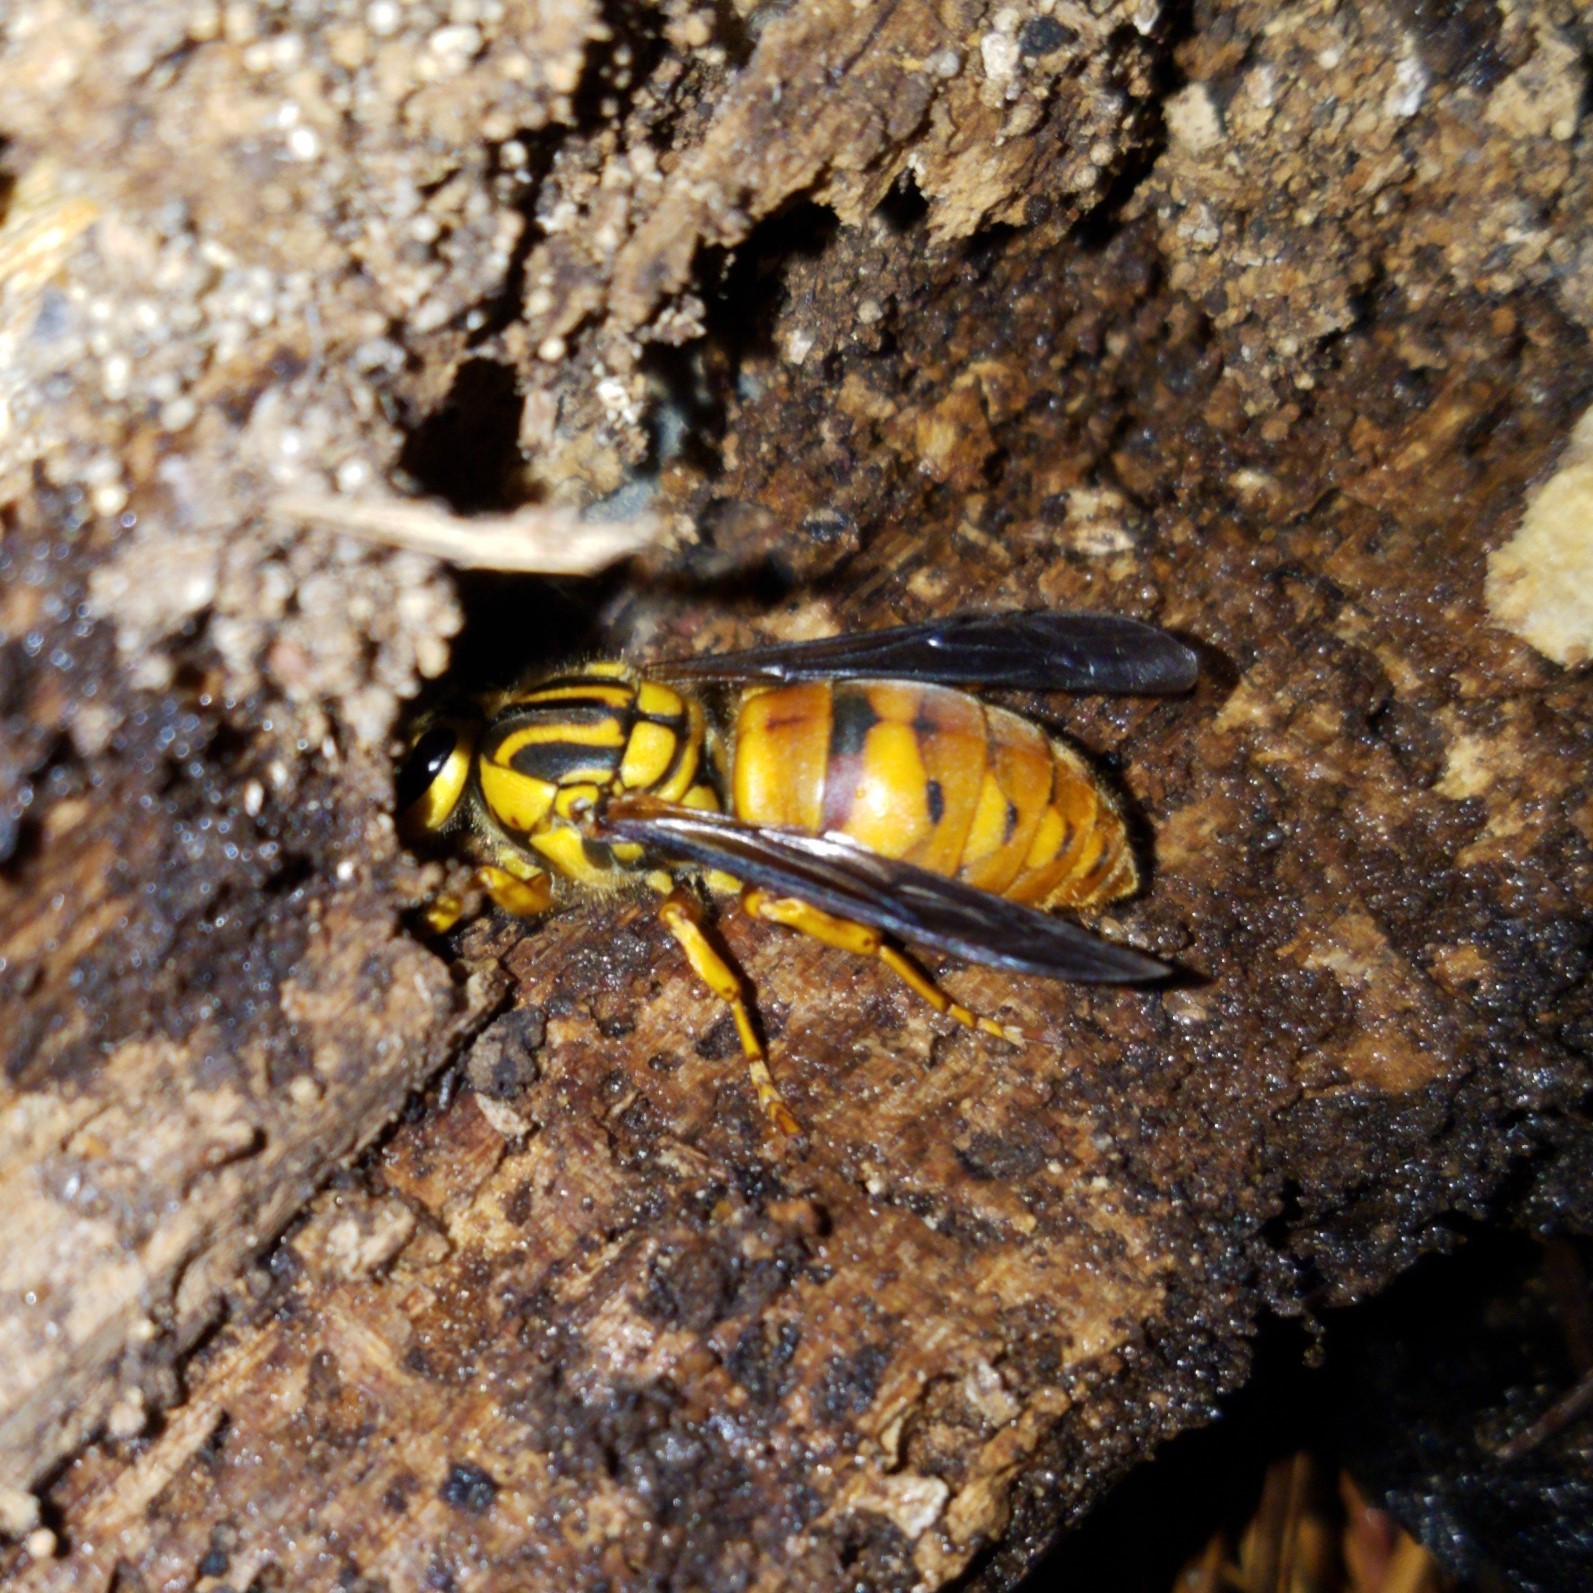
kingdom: Animalia
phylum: Arthropoda
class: Insecta
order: Hymenoptera
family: Vespidae
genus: Vespula
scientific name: Vespula squamosa
